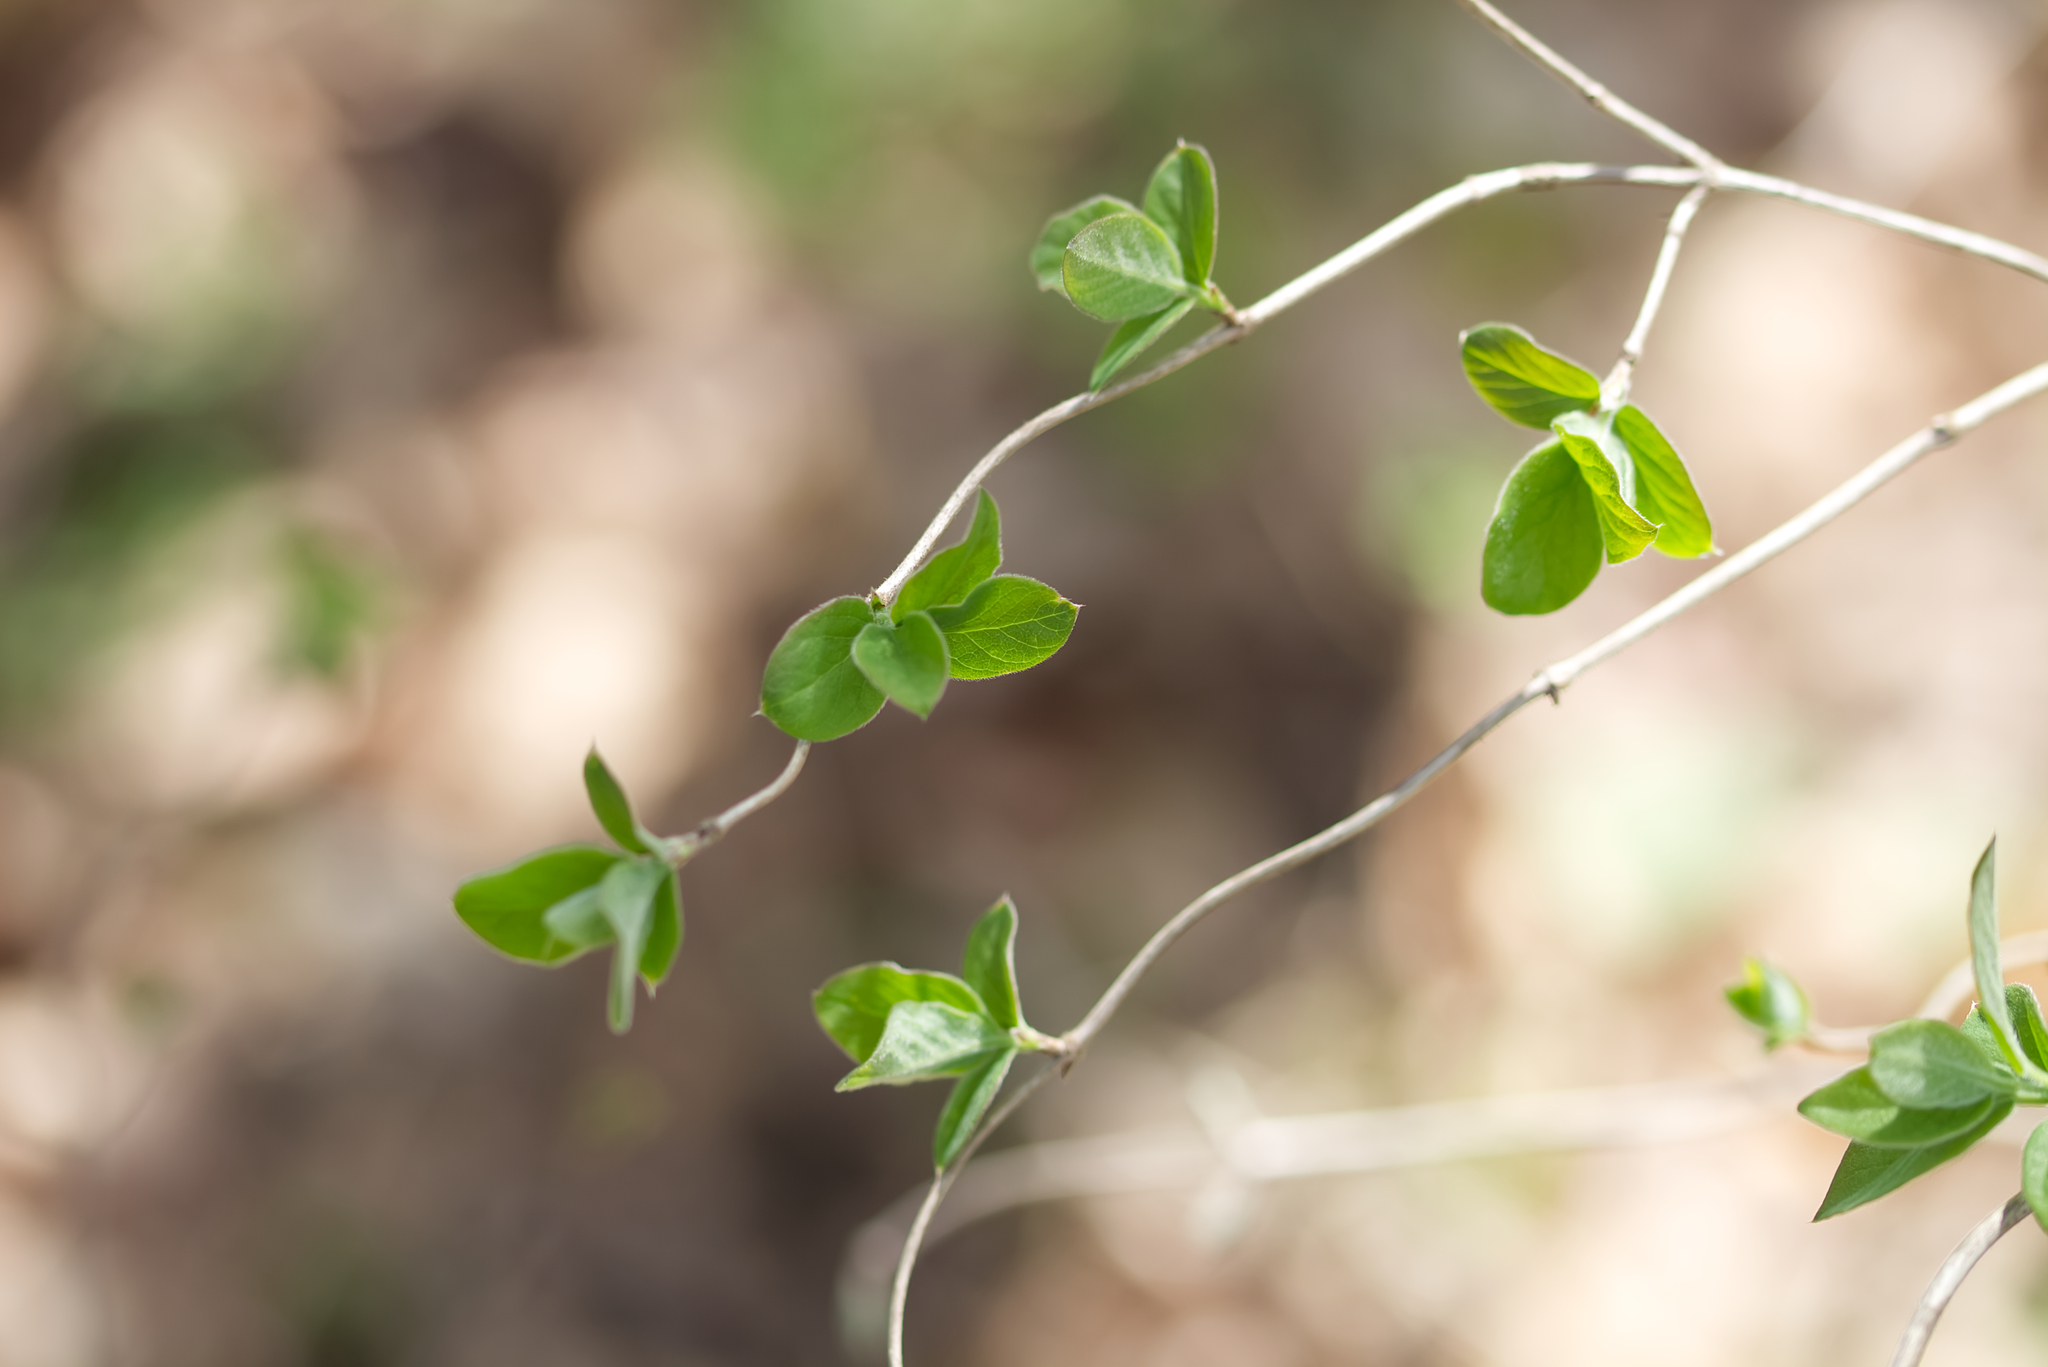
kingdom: Plantae
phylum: Tracheophyta
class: Magnoliopsida
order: Dipsacales
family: Caprifoliaceae
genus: Lonicera
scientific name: Lonicera xylosteum
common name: Fly honeysuckle
